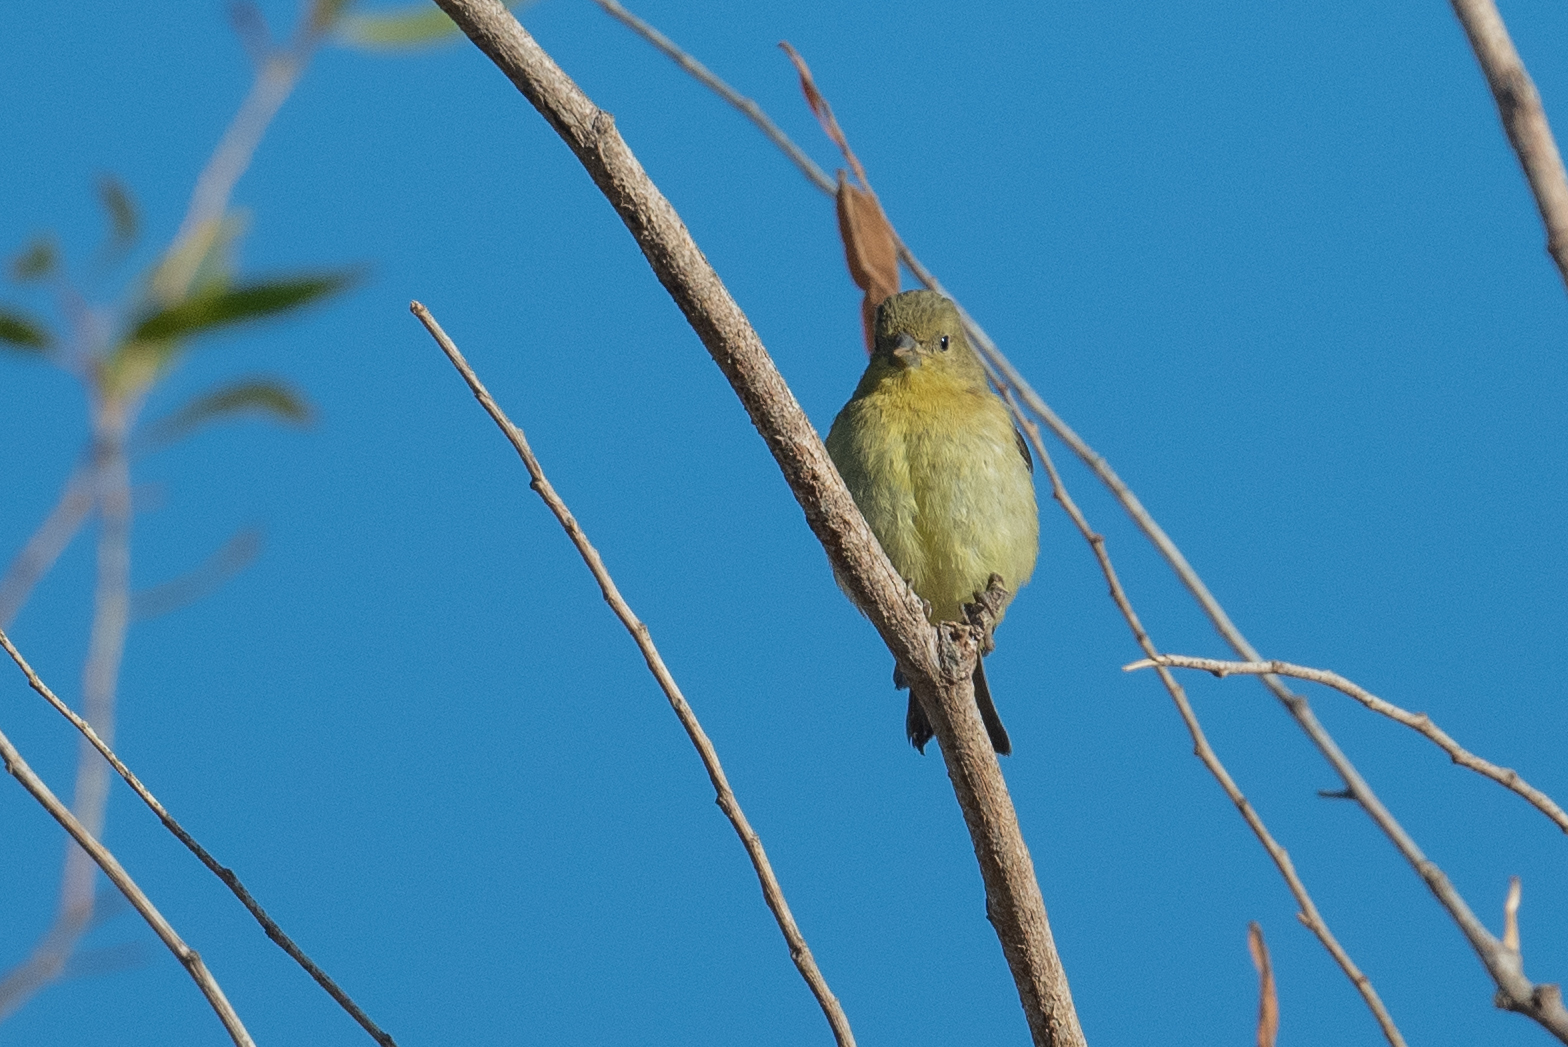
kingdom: Animalia
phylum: Chordata
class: Aves
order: Passeriformes
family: Fringillidae
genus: Spinus
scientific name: Spinus psaltria
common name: Lesser goldfinch
